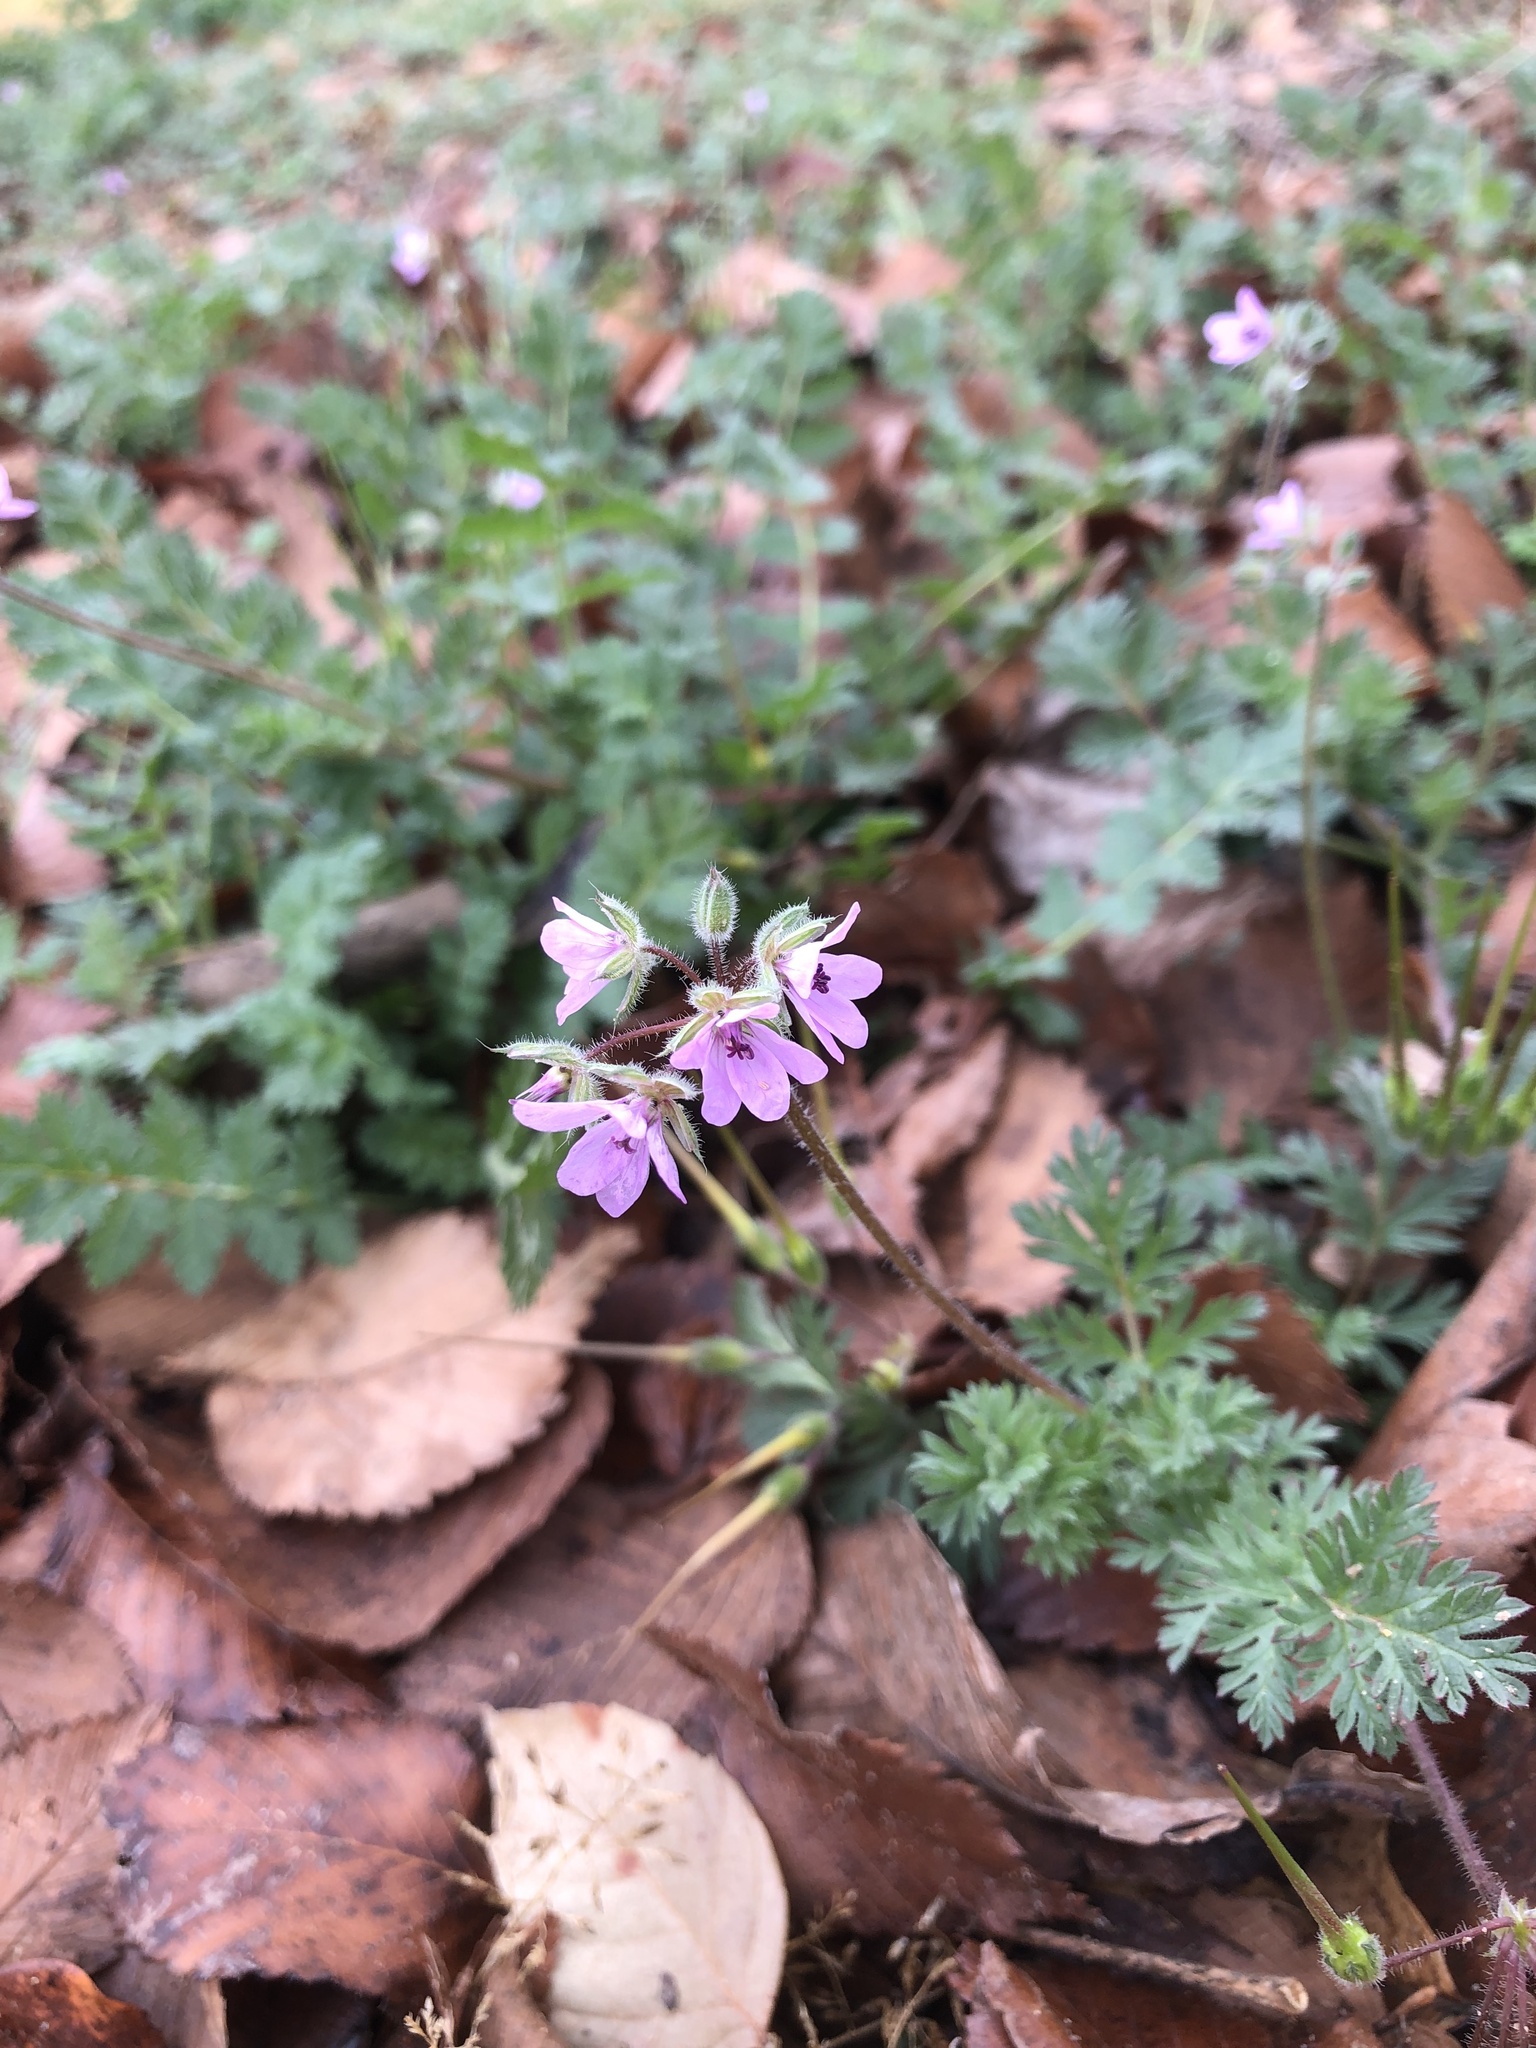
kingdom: Plantae
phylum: Tracheophyta
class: Magnoliopsida
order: Geraniales
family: Geraniaceae
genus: Erodium
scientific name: Erodium cicutarium
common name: Common stork's-bill
